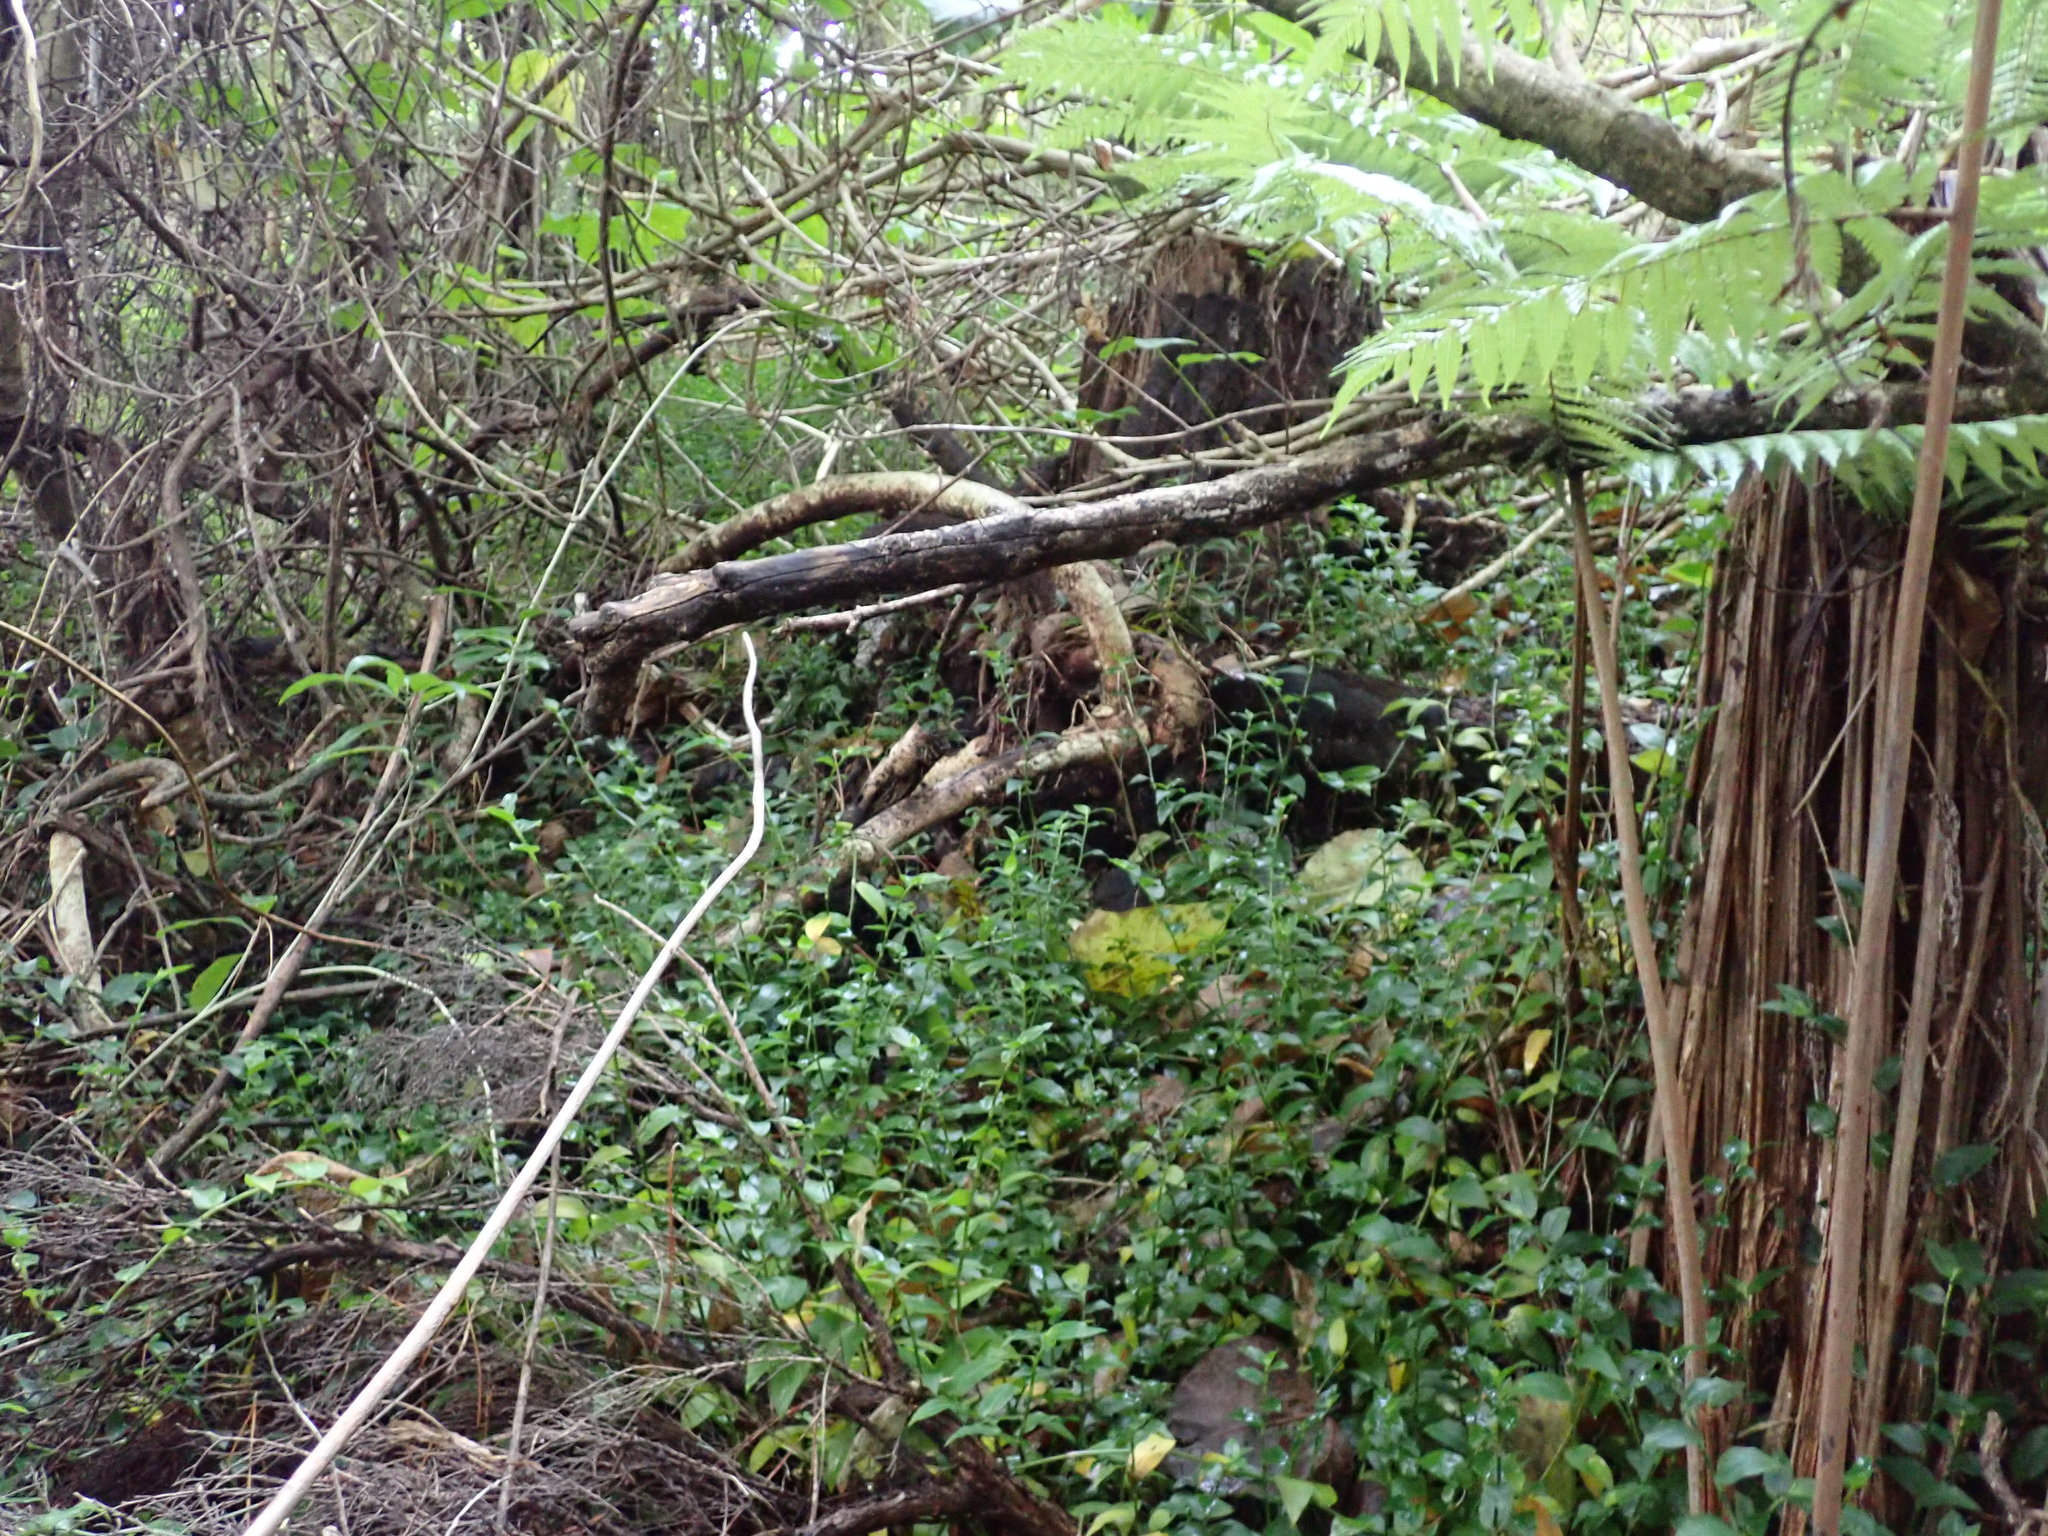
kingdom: Plantae
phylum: Tracheophyta
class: Liliopsida
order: Commelinales
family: Commelinaceae
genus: Tradescantia
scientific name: Tradescantia fluminensis
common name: Wandering-jew
